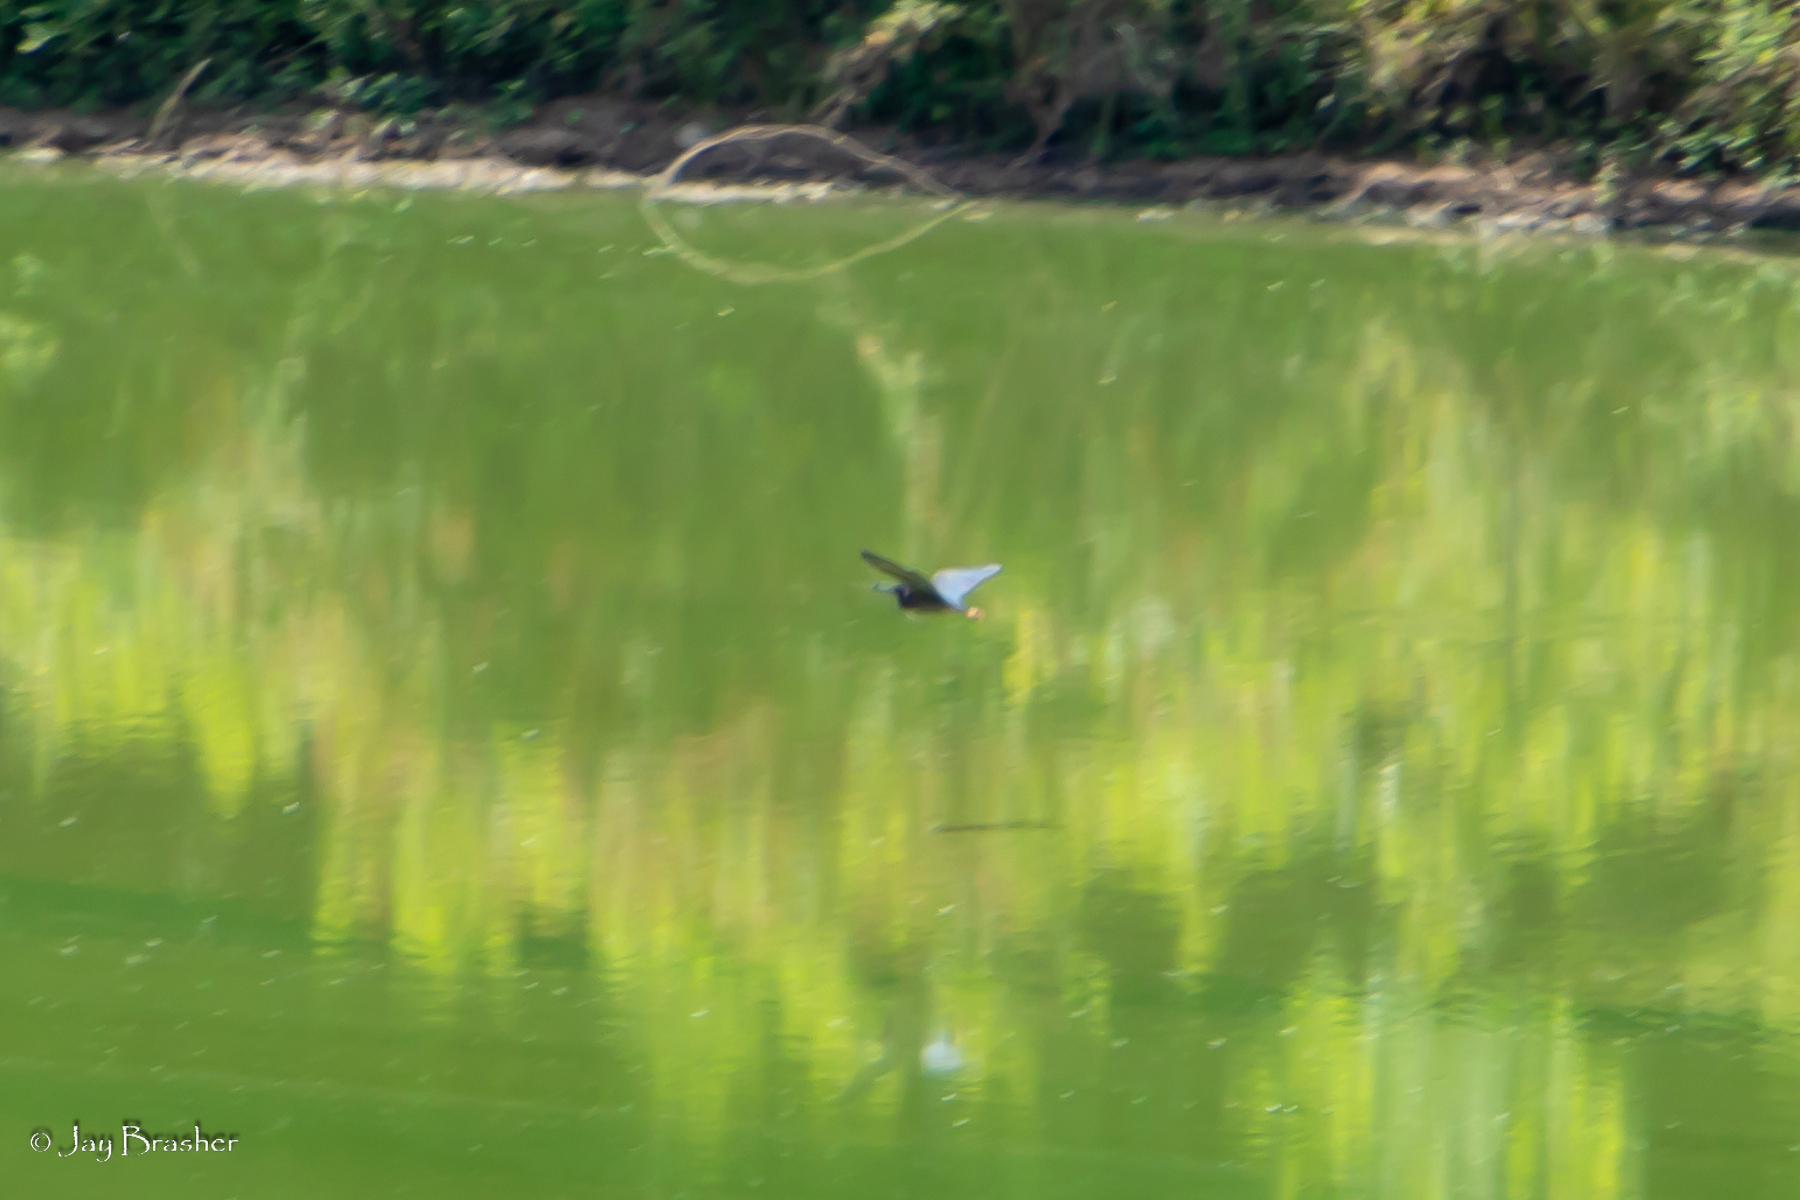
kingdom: Animalia
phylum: Chordata
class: Aves
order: Pelecaniformes
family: Ardeidae
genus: Butorides
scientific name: Butorides virescens
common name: Green heron
